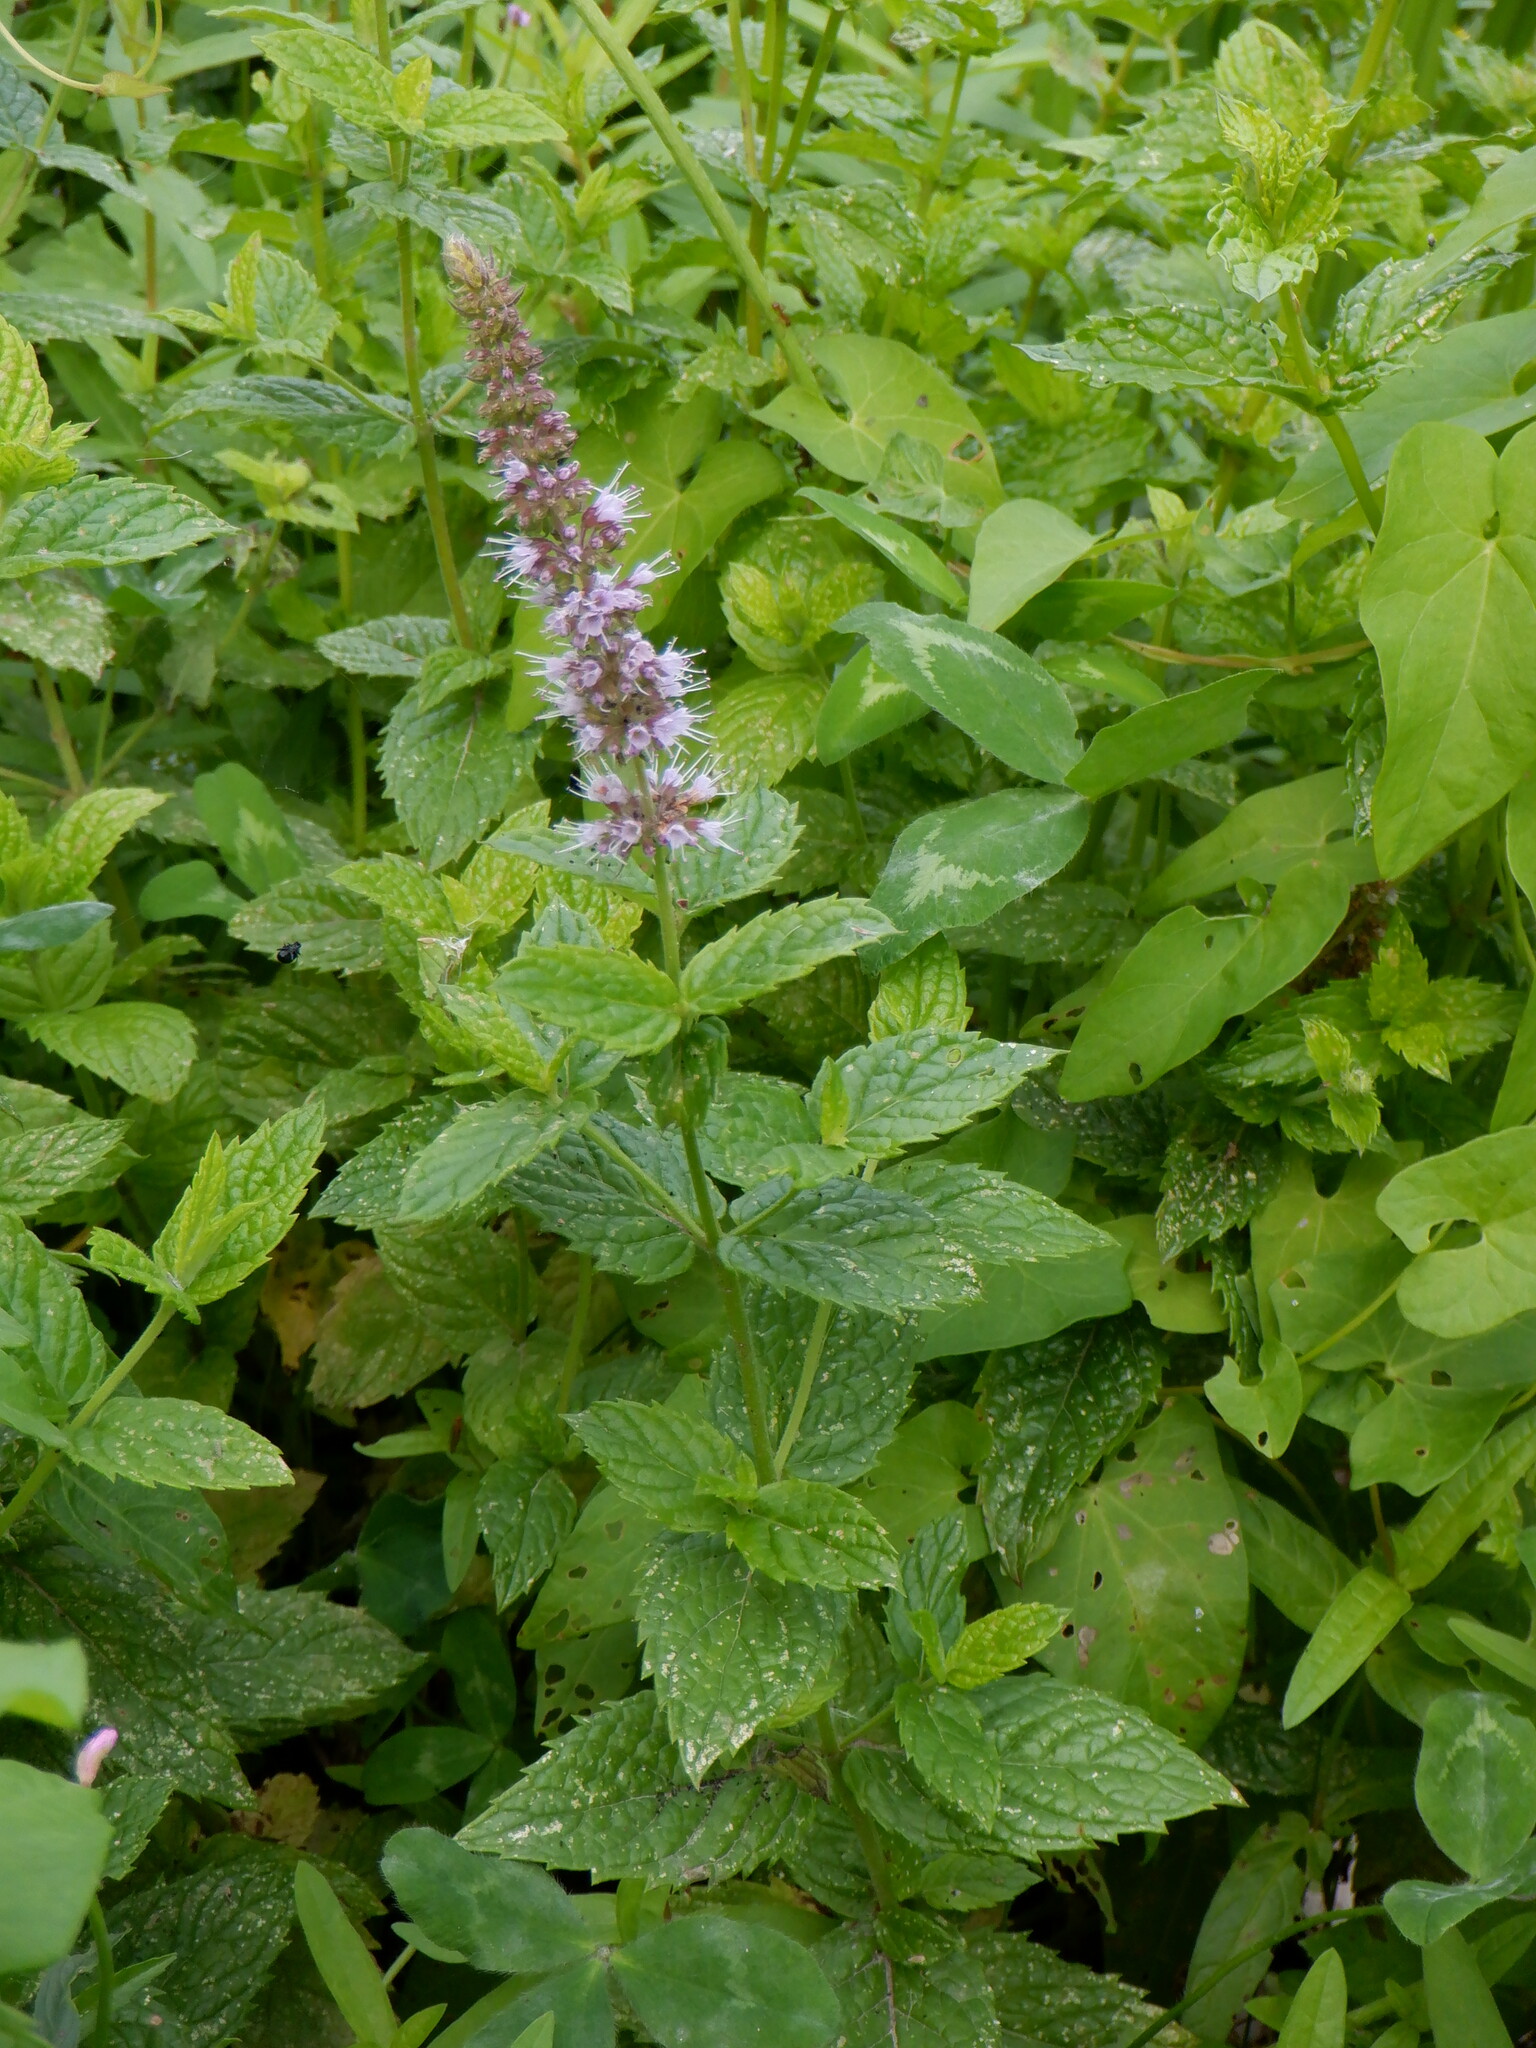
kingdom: Plantae
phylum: Tracheophyta
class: Magnoliopsida
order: Lamiales
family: Lamiaceae
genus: Mentha
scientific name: Mentha spicata
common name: Spearmint
